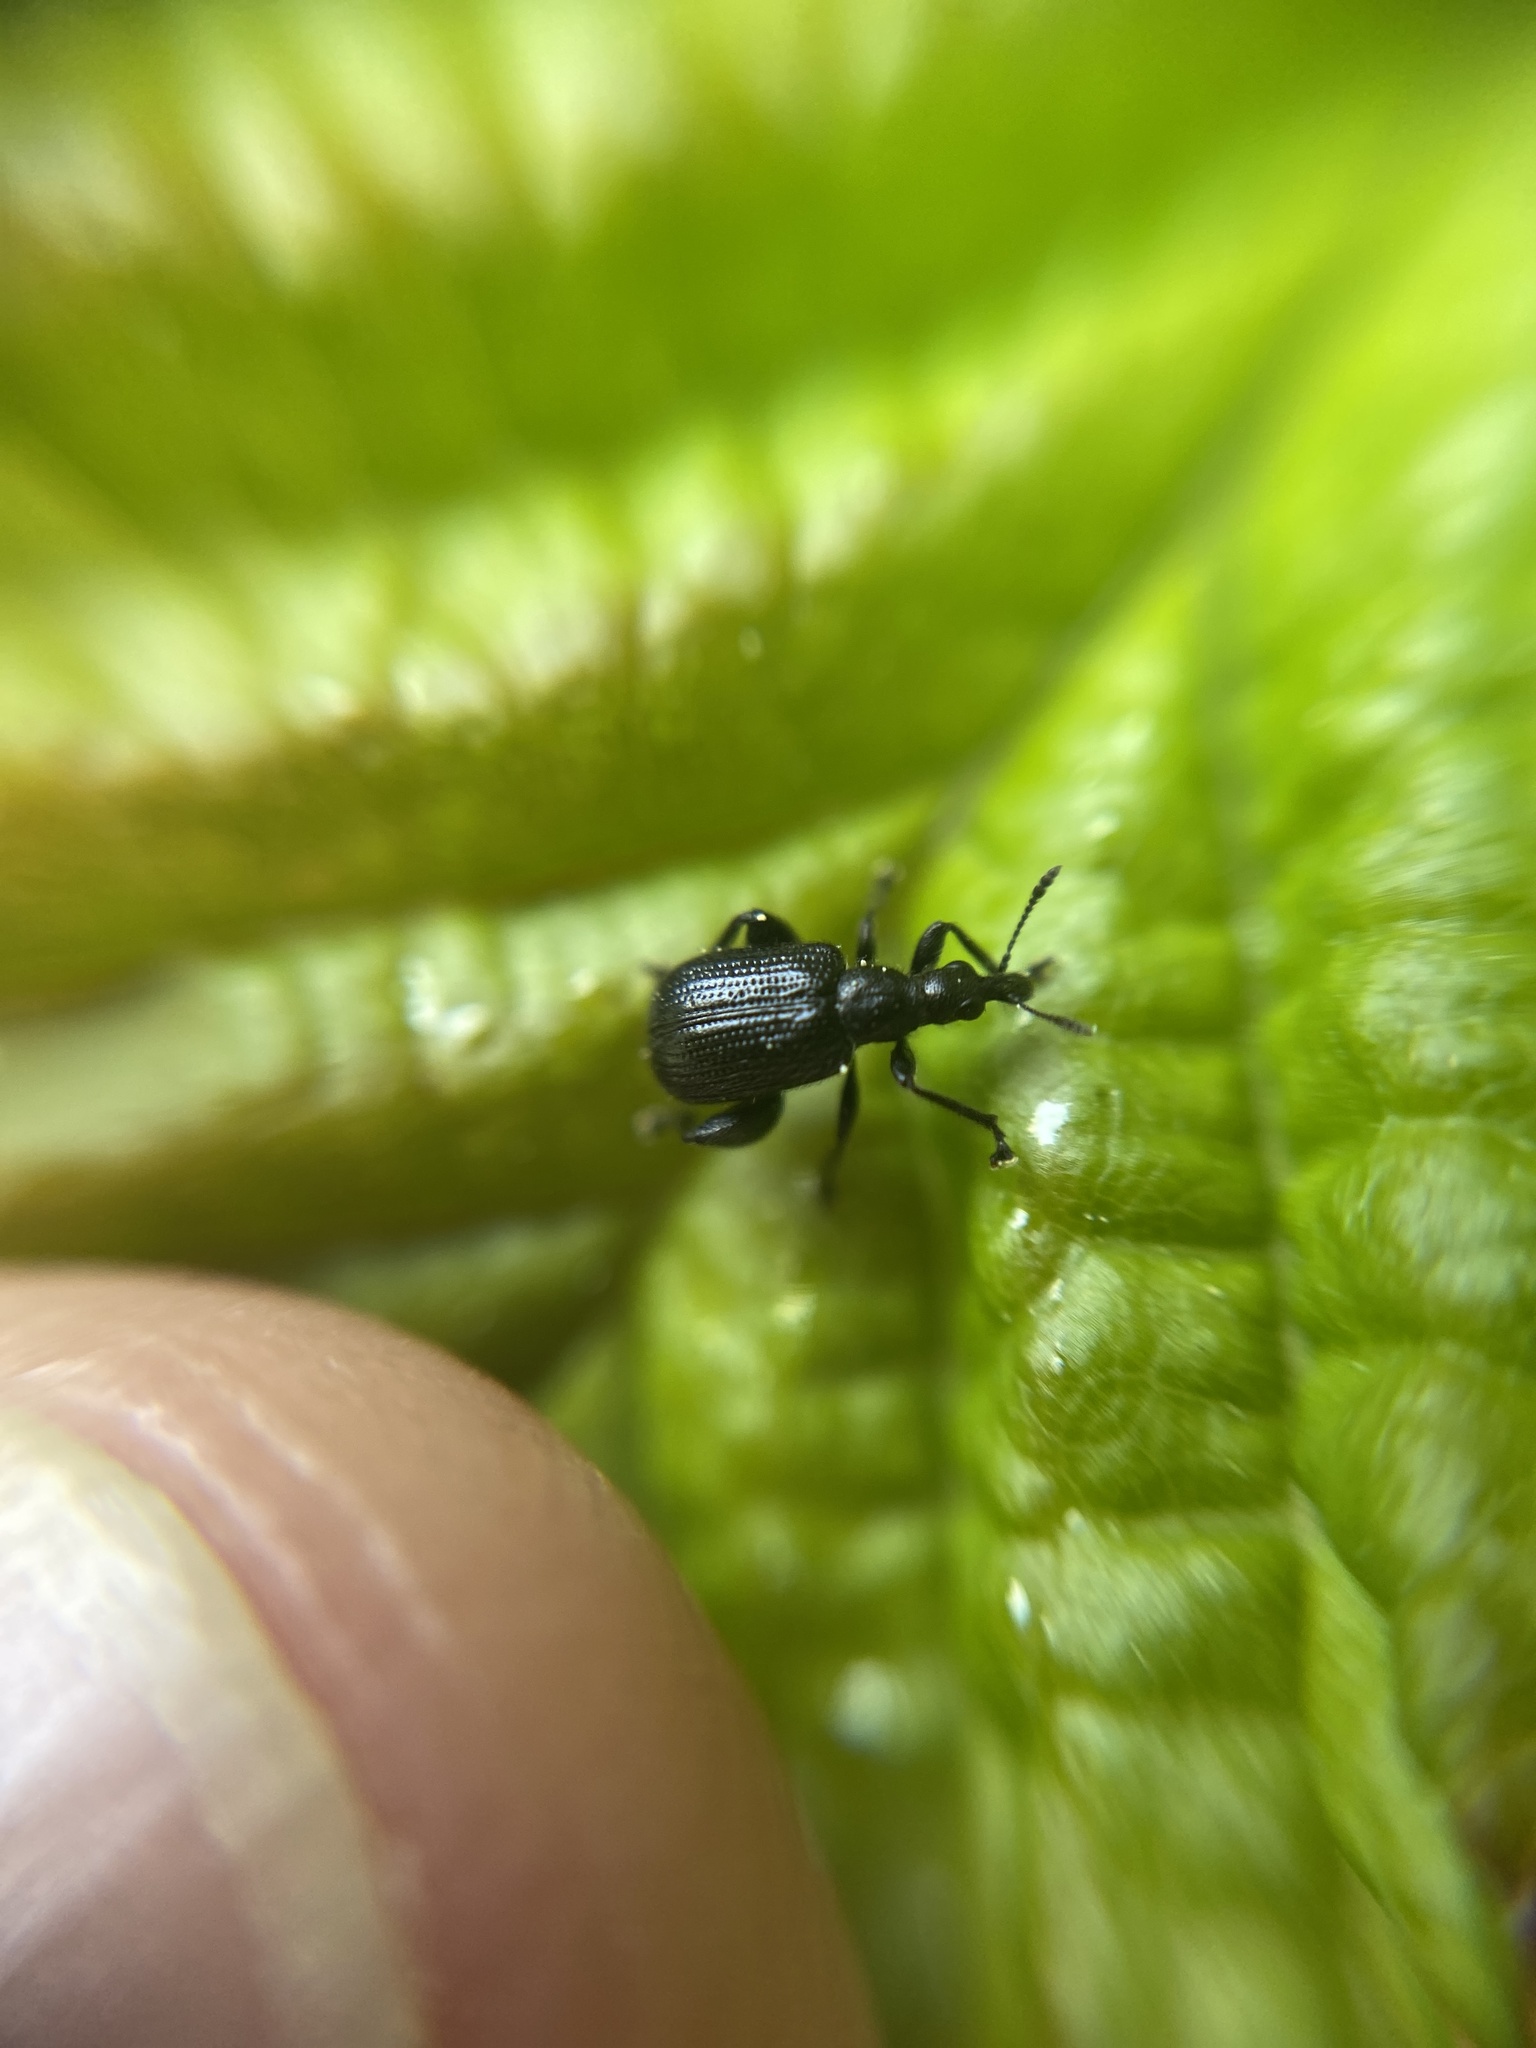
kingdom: Animalia
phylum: Arthropoda
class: Insecta
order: Coleoptera
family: Attelabidae
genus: Deporaus
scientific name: Deporaus betulae
